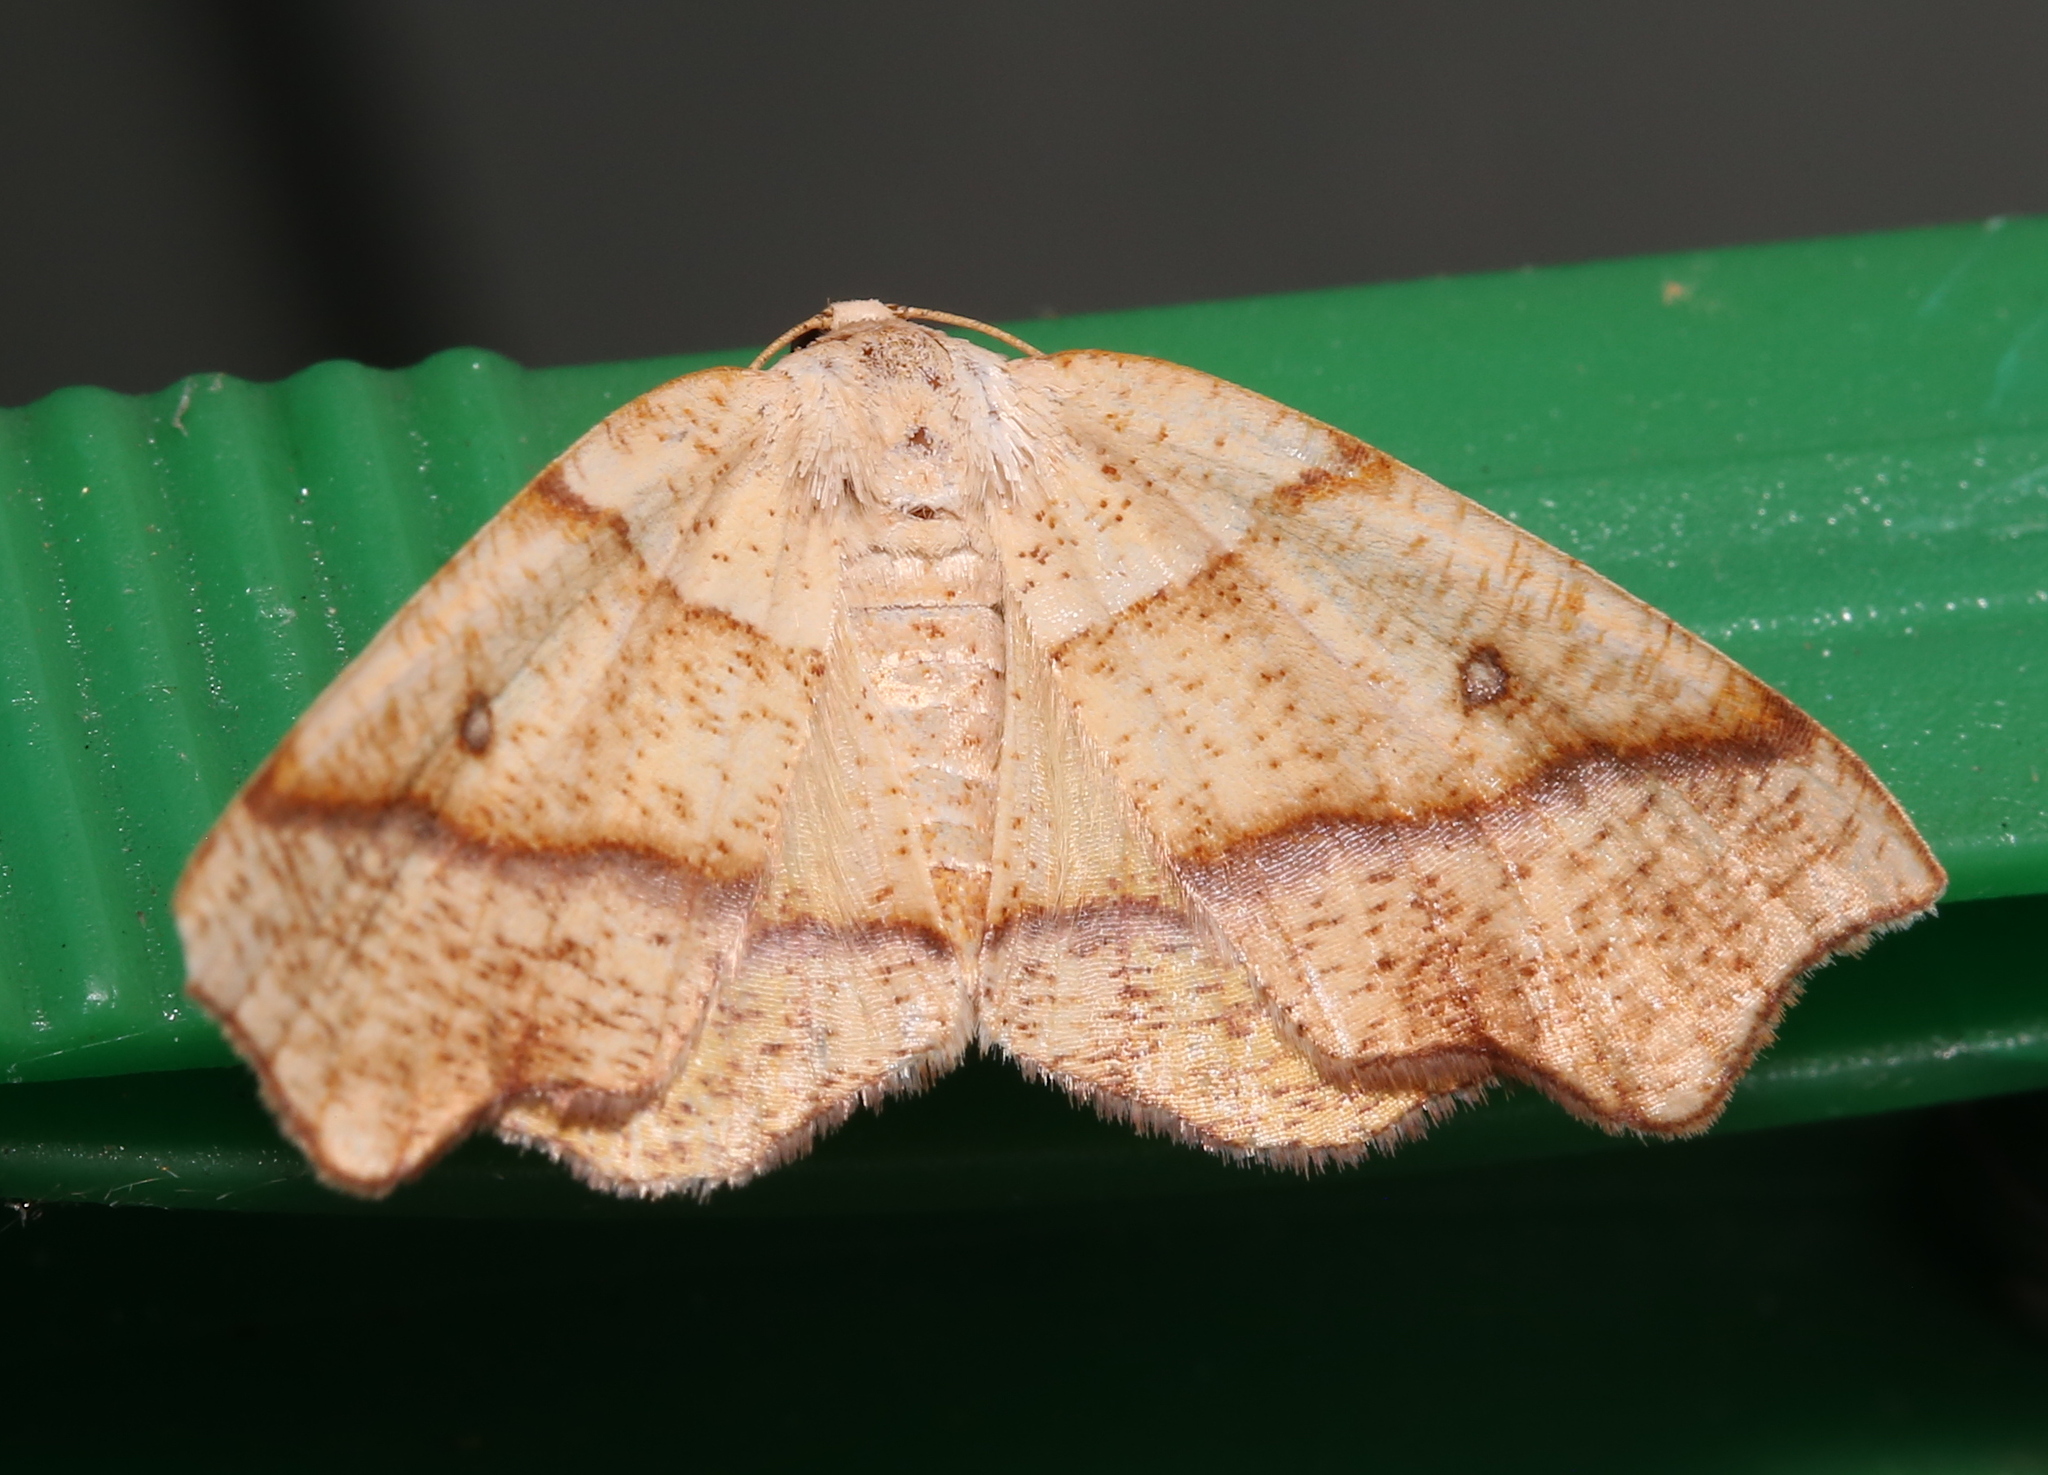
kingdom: Animalia
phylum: Arthropoda
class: Insecta
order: Lepidoptera
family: Geometridae
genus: Plagodis
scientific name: Plagodis alcoolaria
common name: Hollow-spotted plagodis
